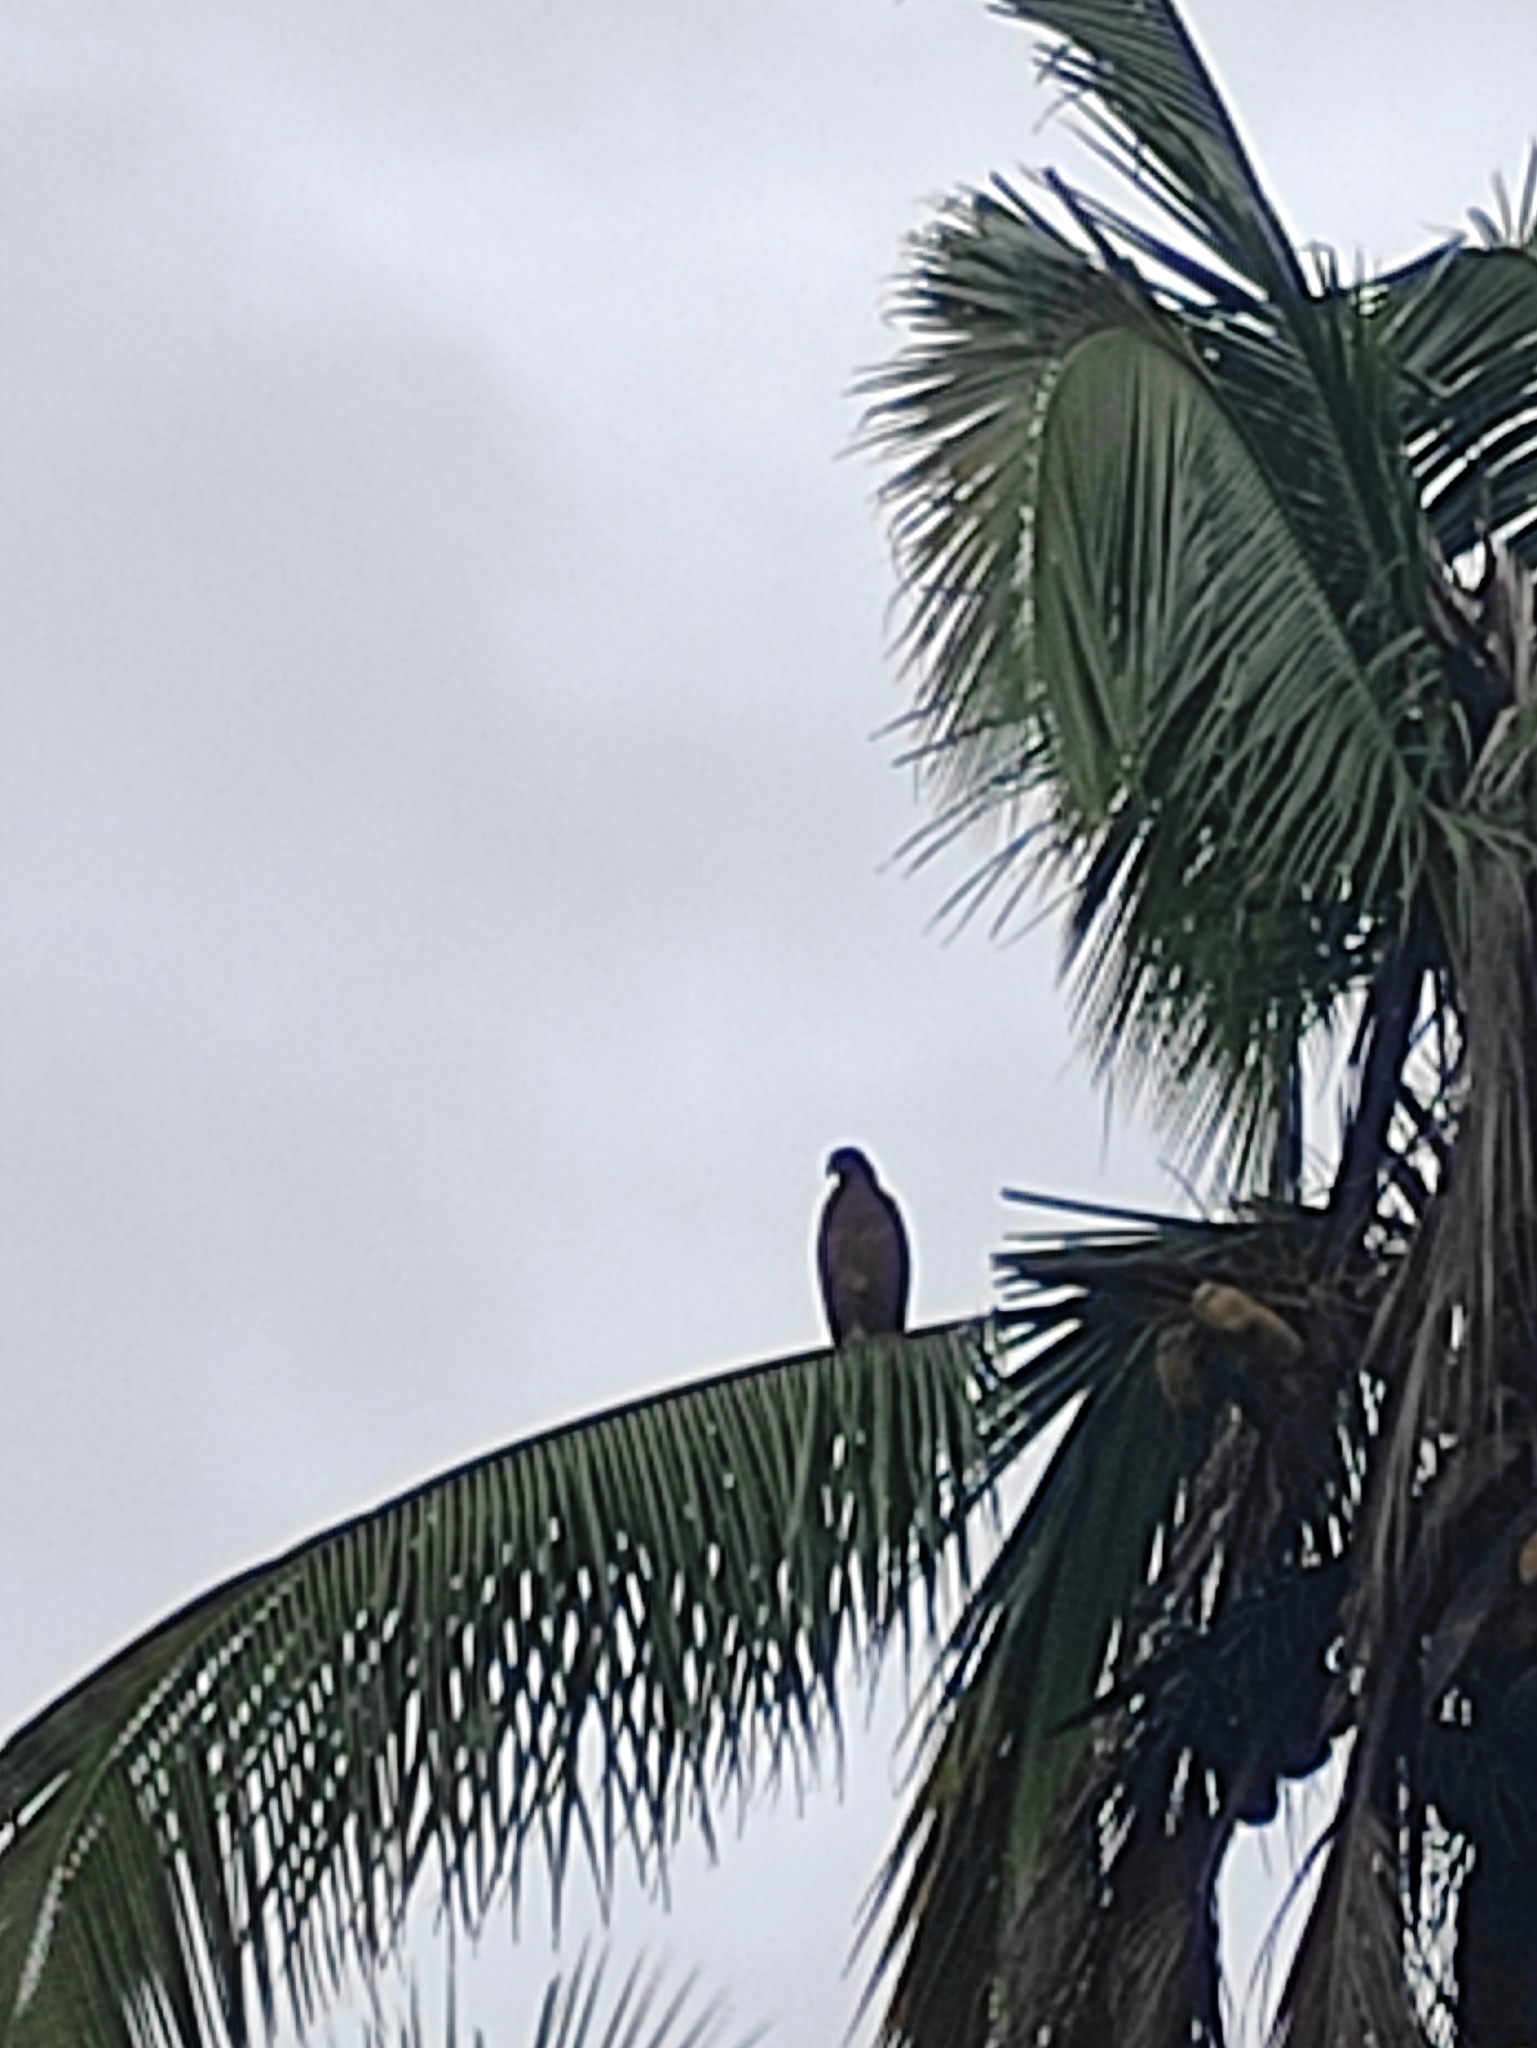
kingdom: Animalia
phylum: Chordata
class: Aves
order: Accipitriformes
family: Accipitridae
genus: Milvus
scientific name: Milvus migrans
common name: Black kite
